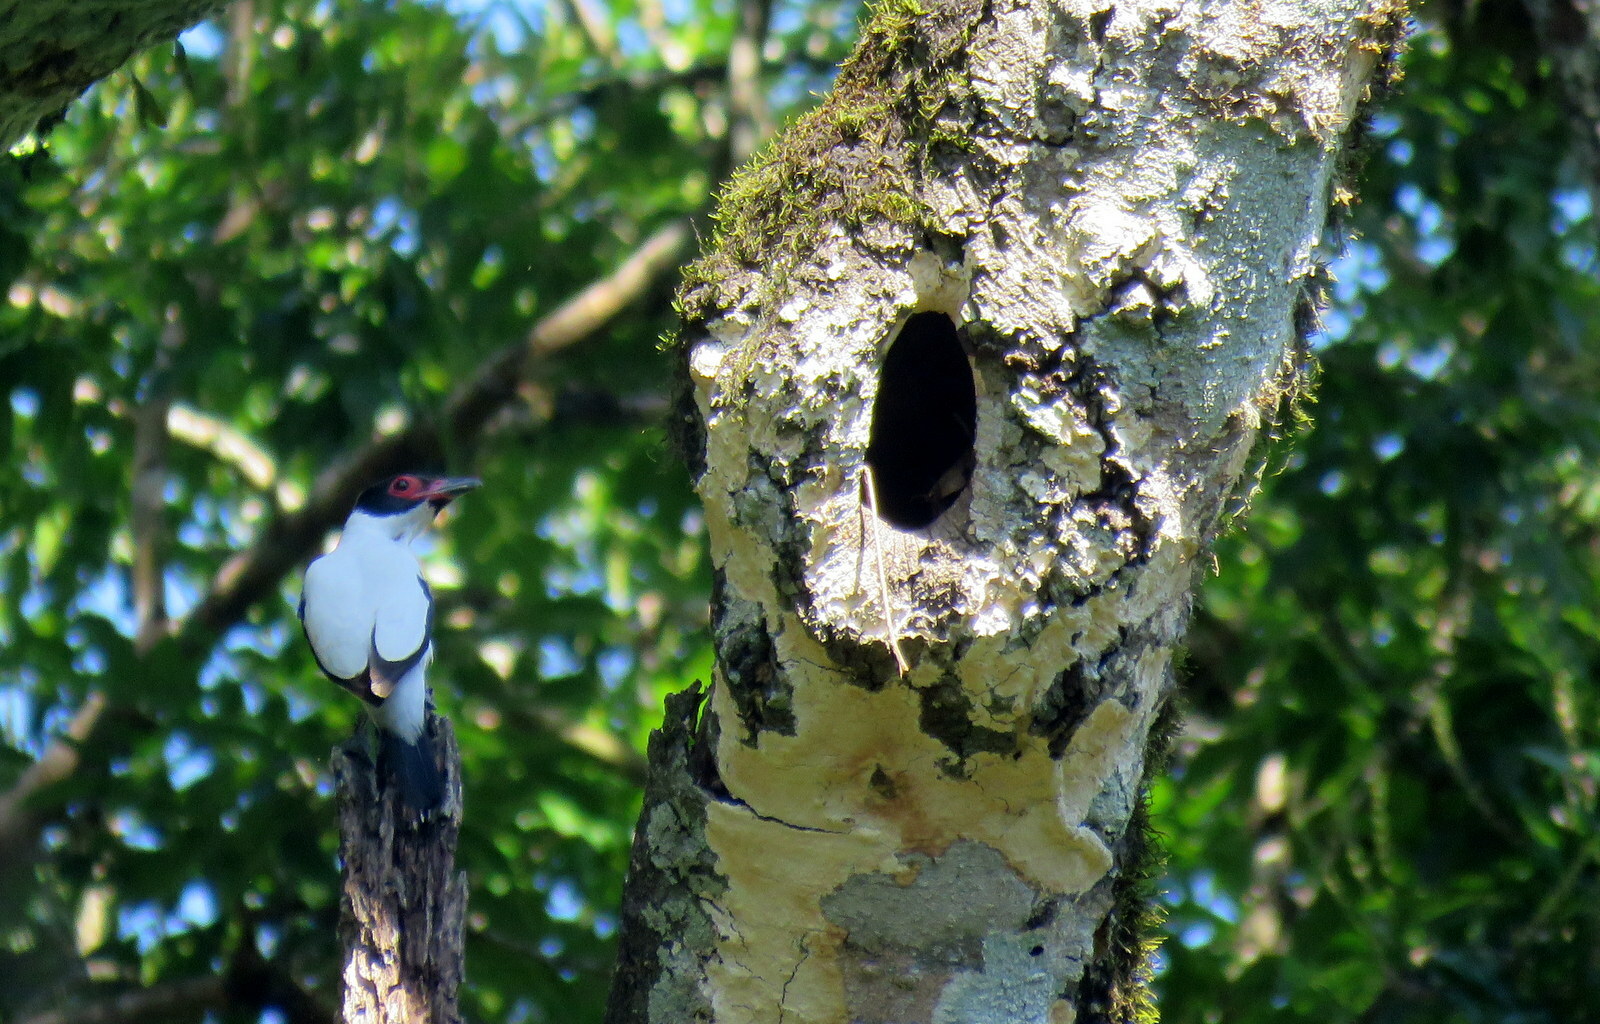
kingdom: Animalia
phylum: Chordata
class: Aves
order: Passeriformes
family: Cotingidae
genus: Tityra
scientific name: Tityra cayana
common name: Black-tailed tityra
